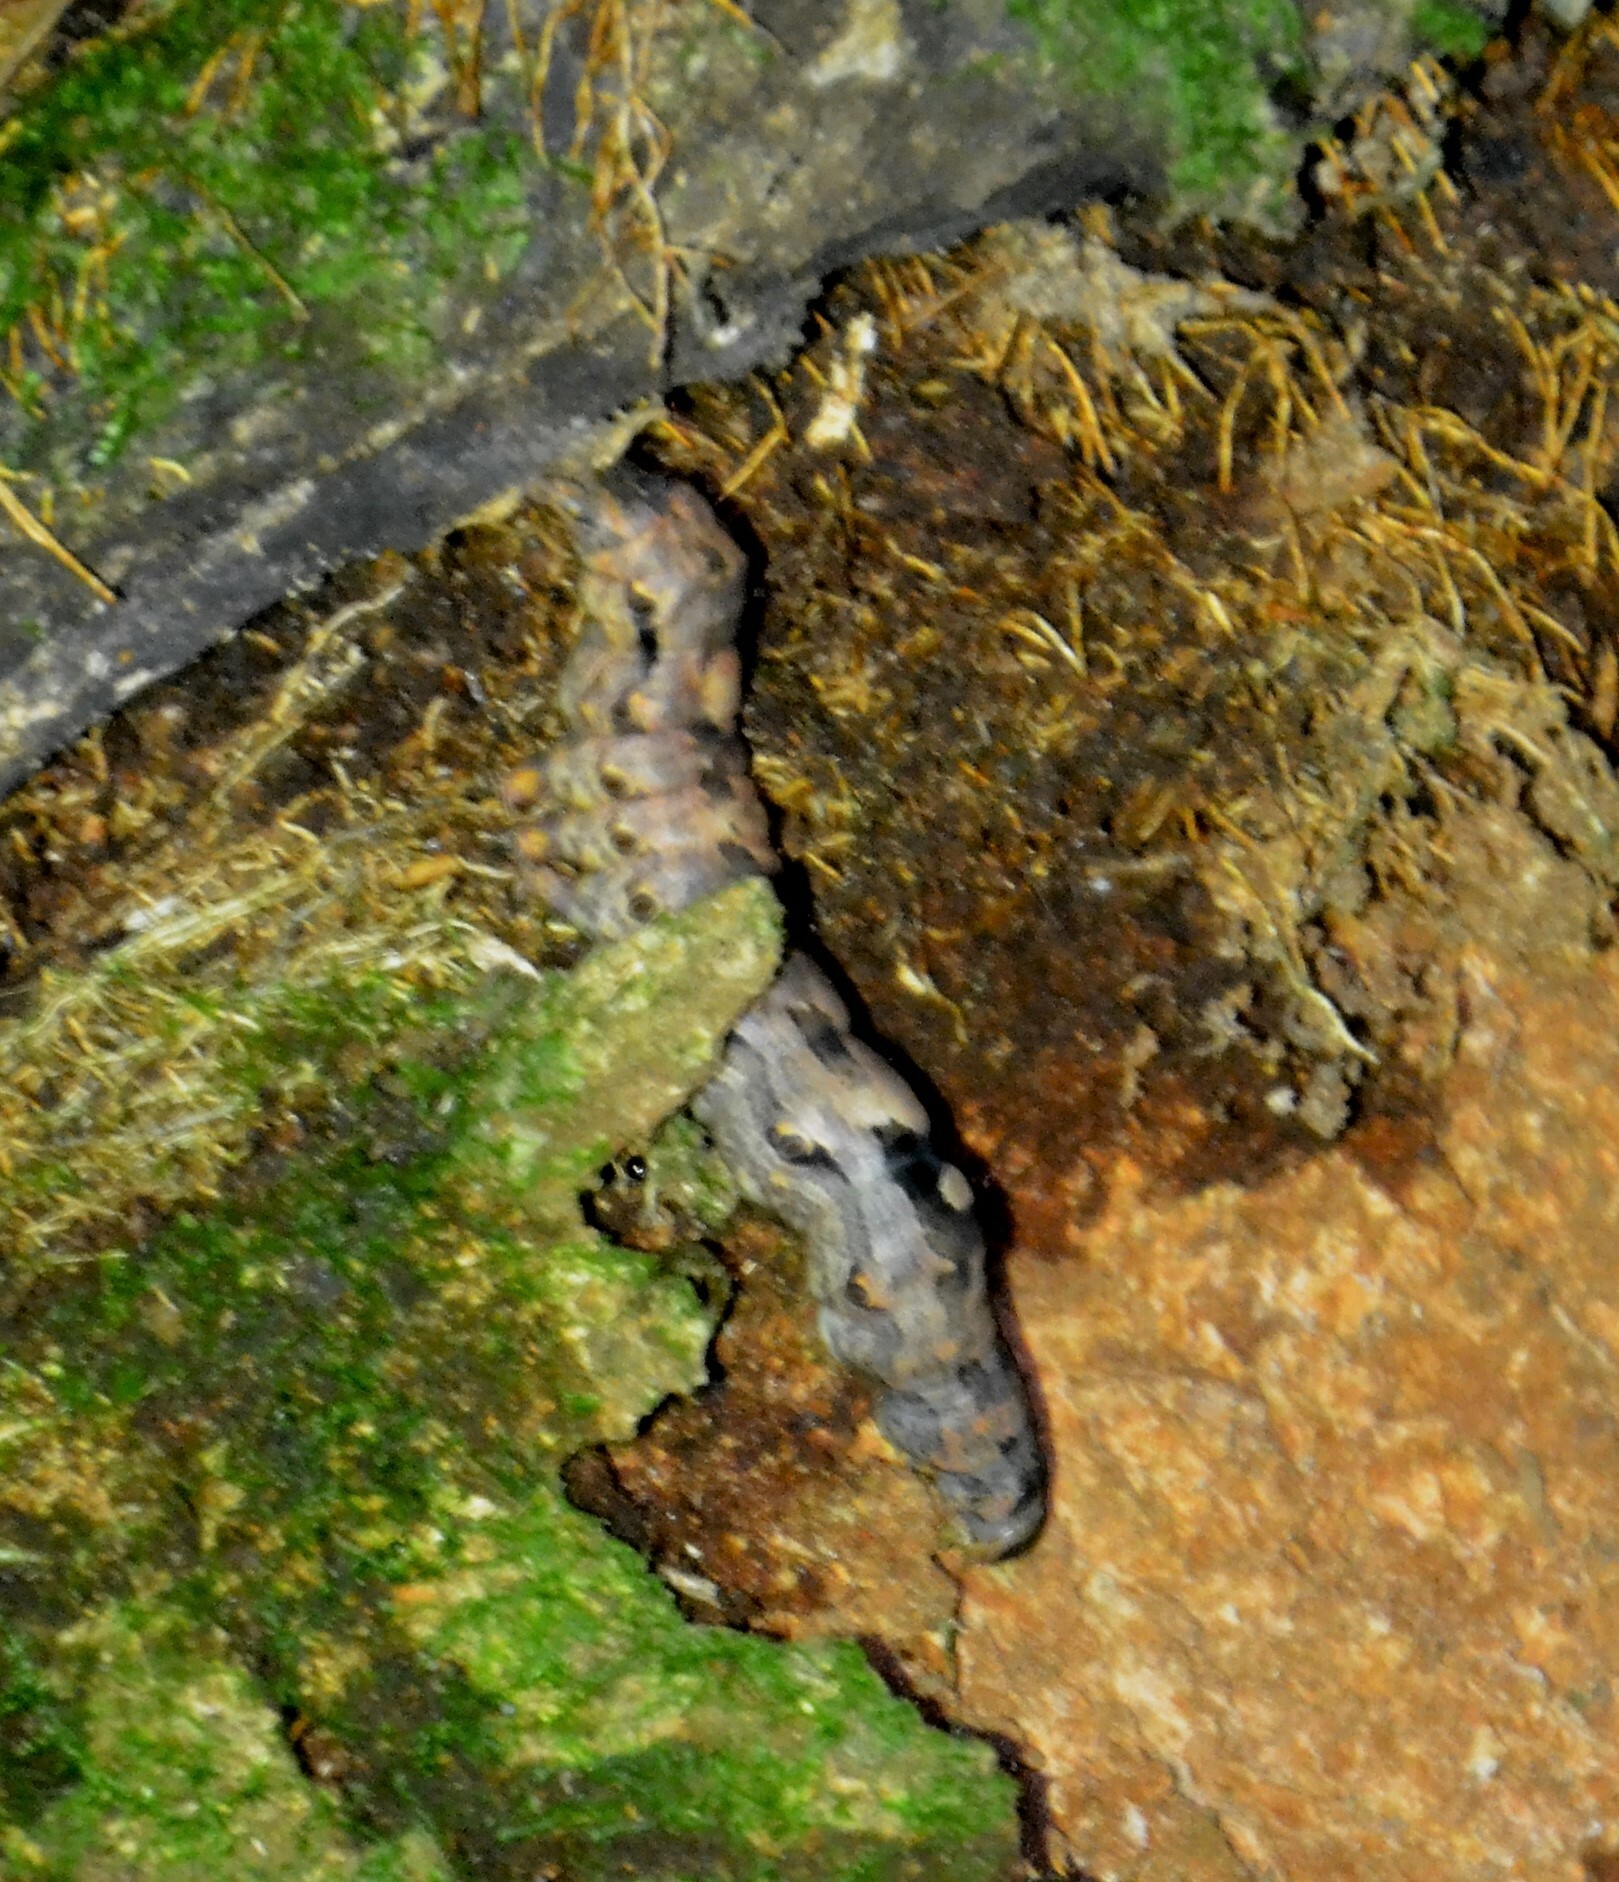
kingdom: Animalia
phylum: Arthropoda
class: Insecta
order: Lepidoptera
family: Erebidae
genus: Ascalapha
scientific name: Ascalapha odorata
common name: Black witch
